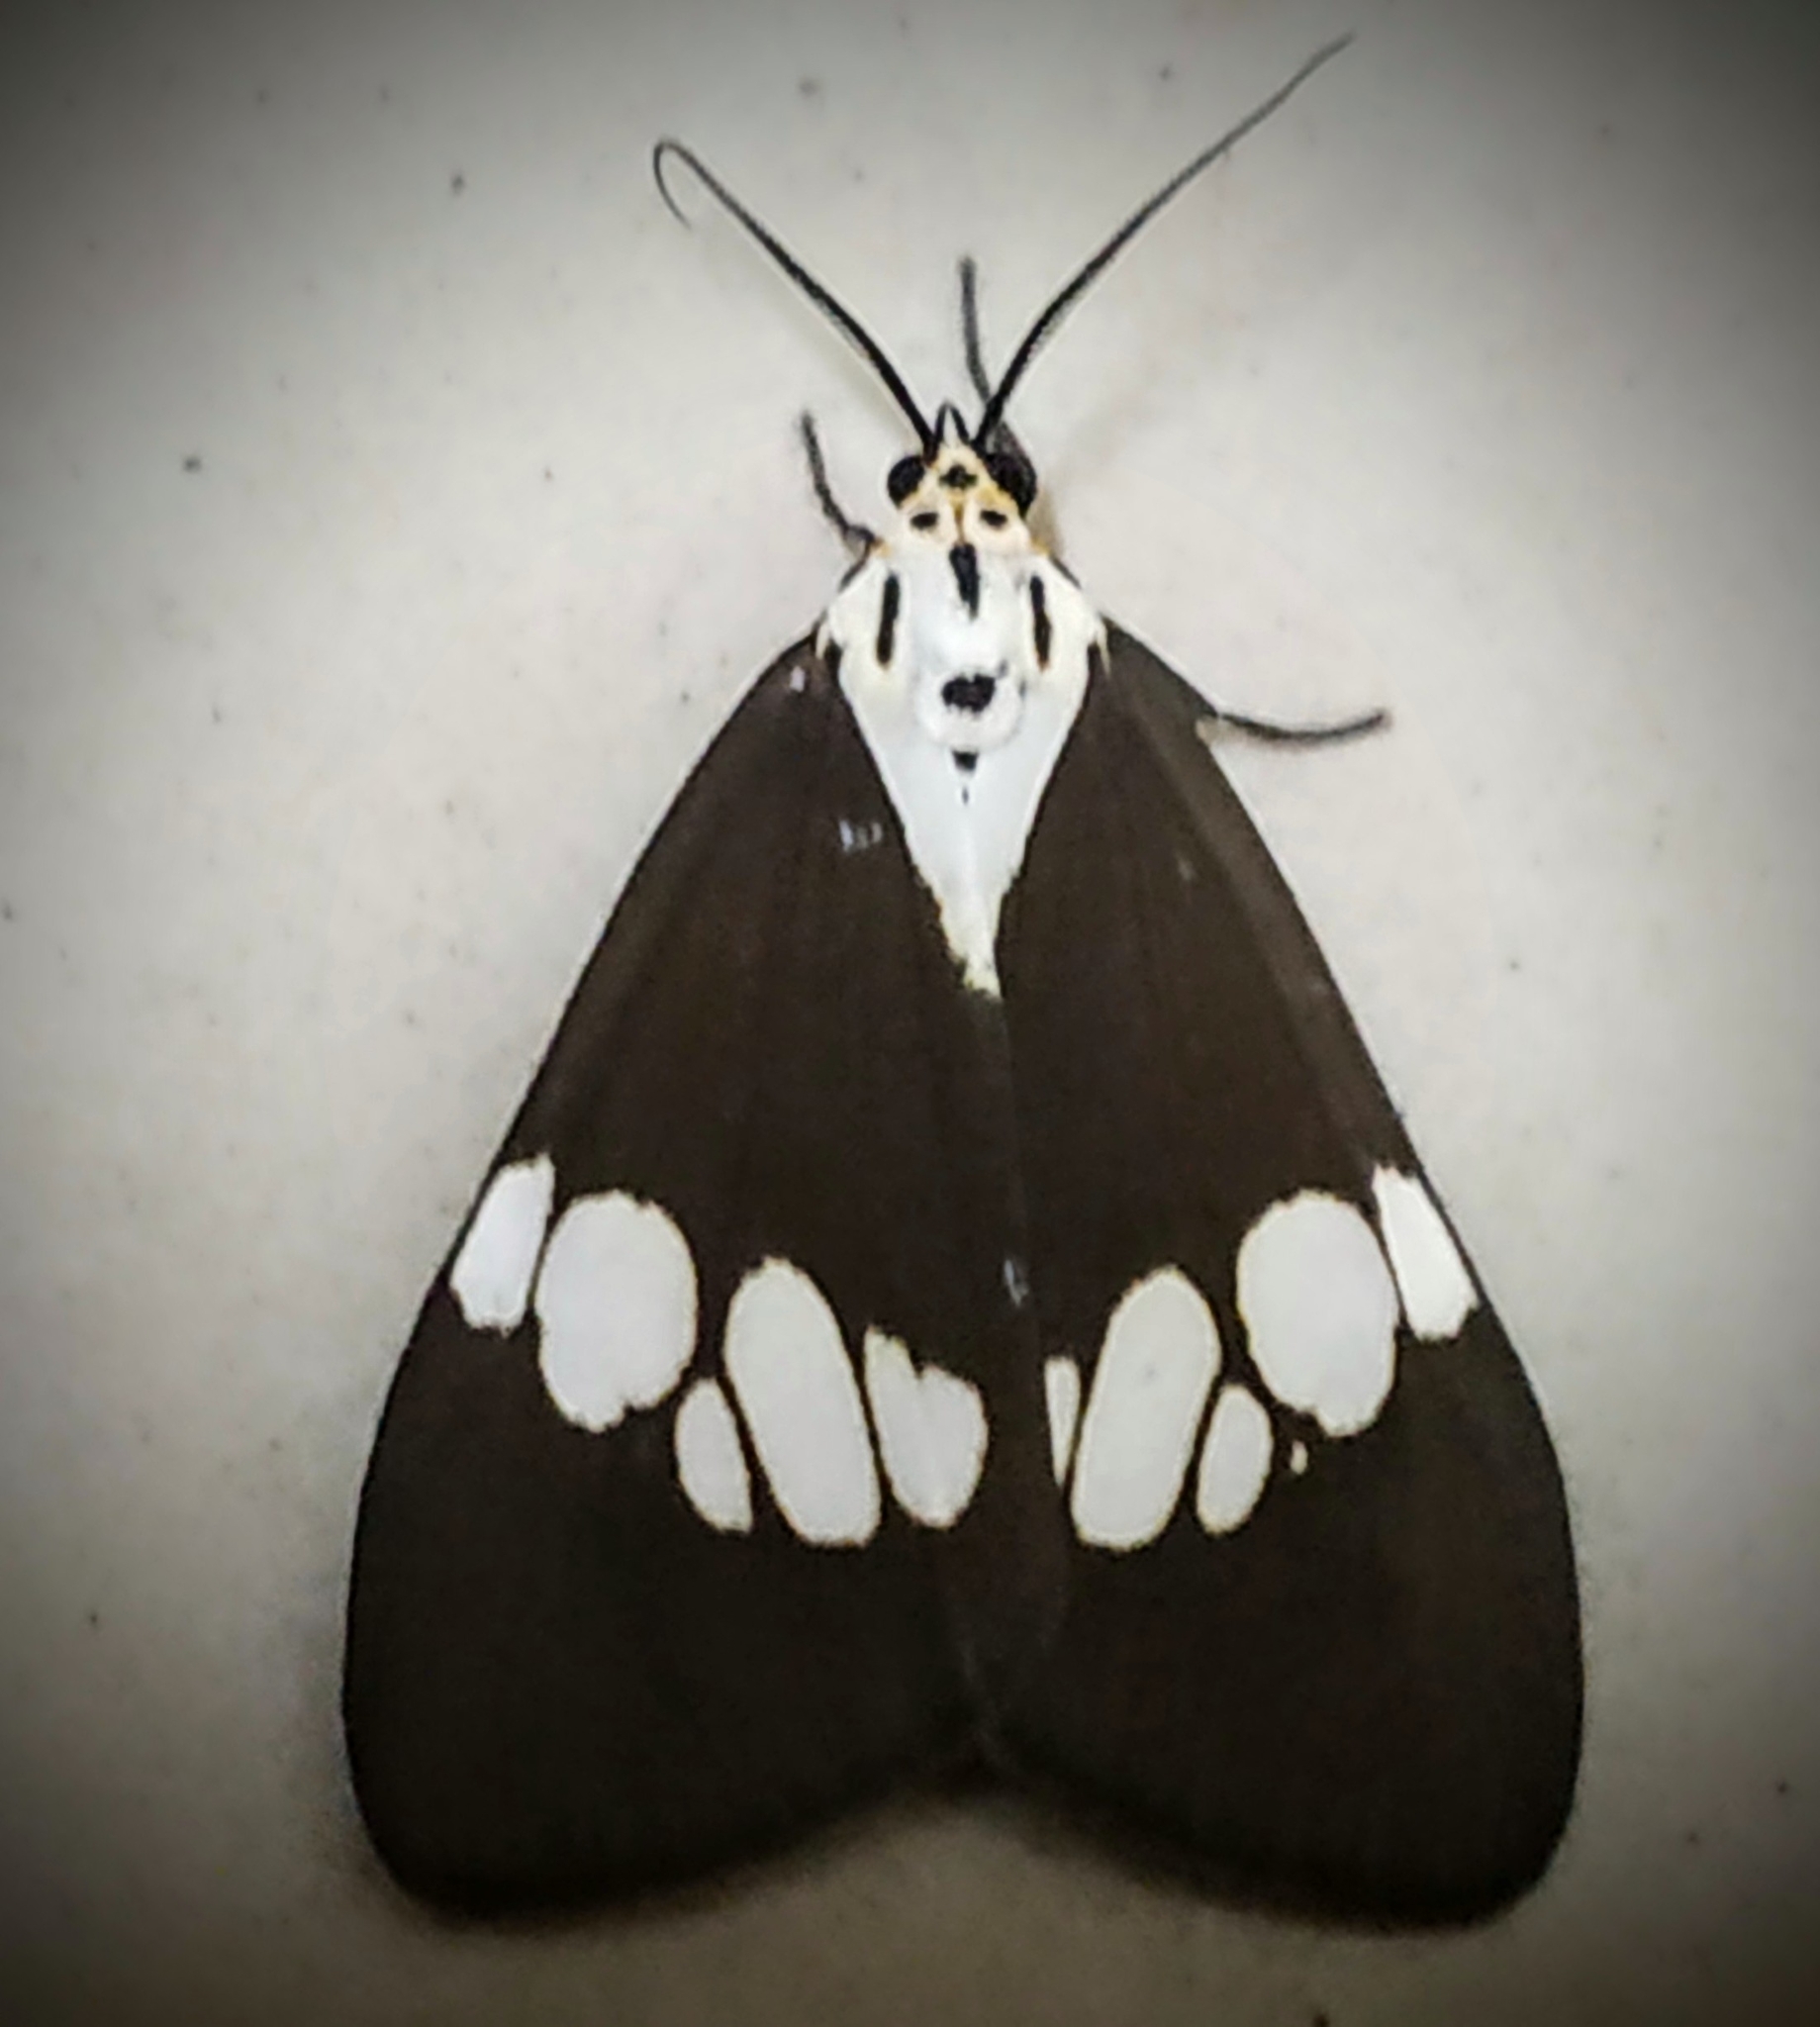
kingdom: Animalia
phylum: Arthropoda
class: Insecta
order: Lepidoptera
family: Erebidae
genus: Nyctemera
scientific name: Nyctemera lacticinia
